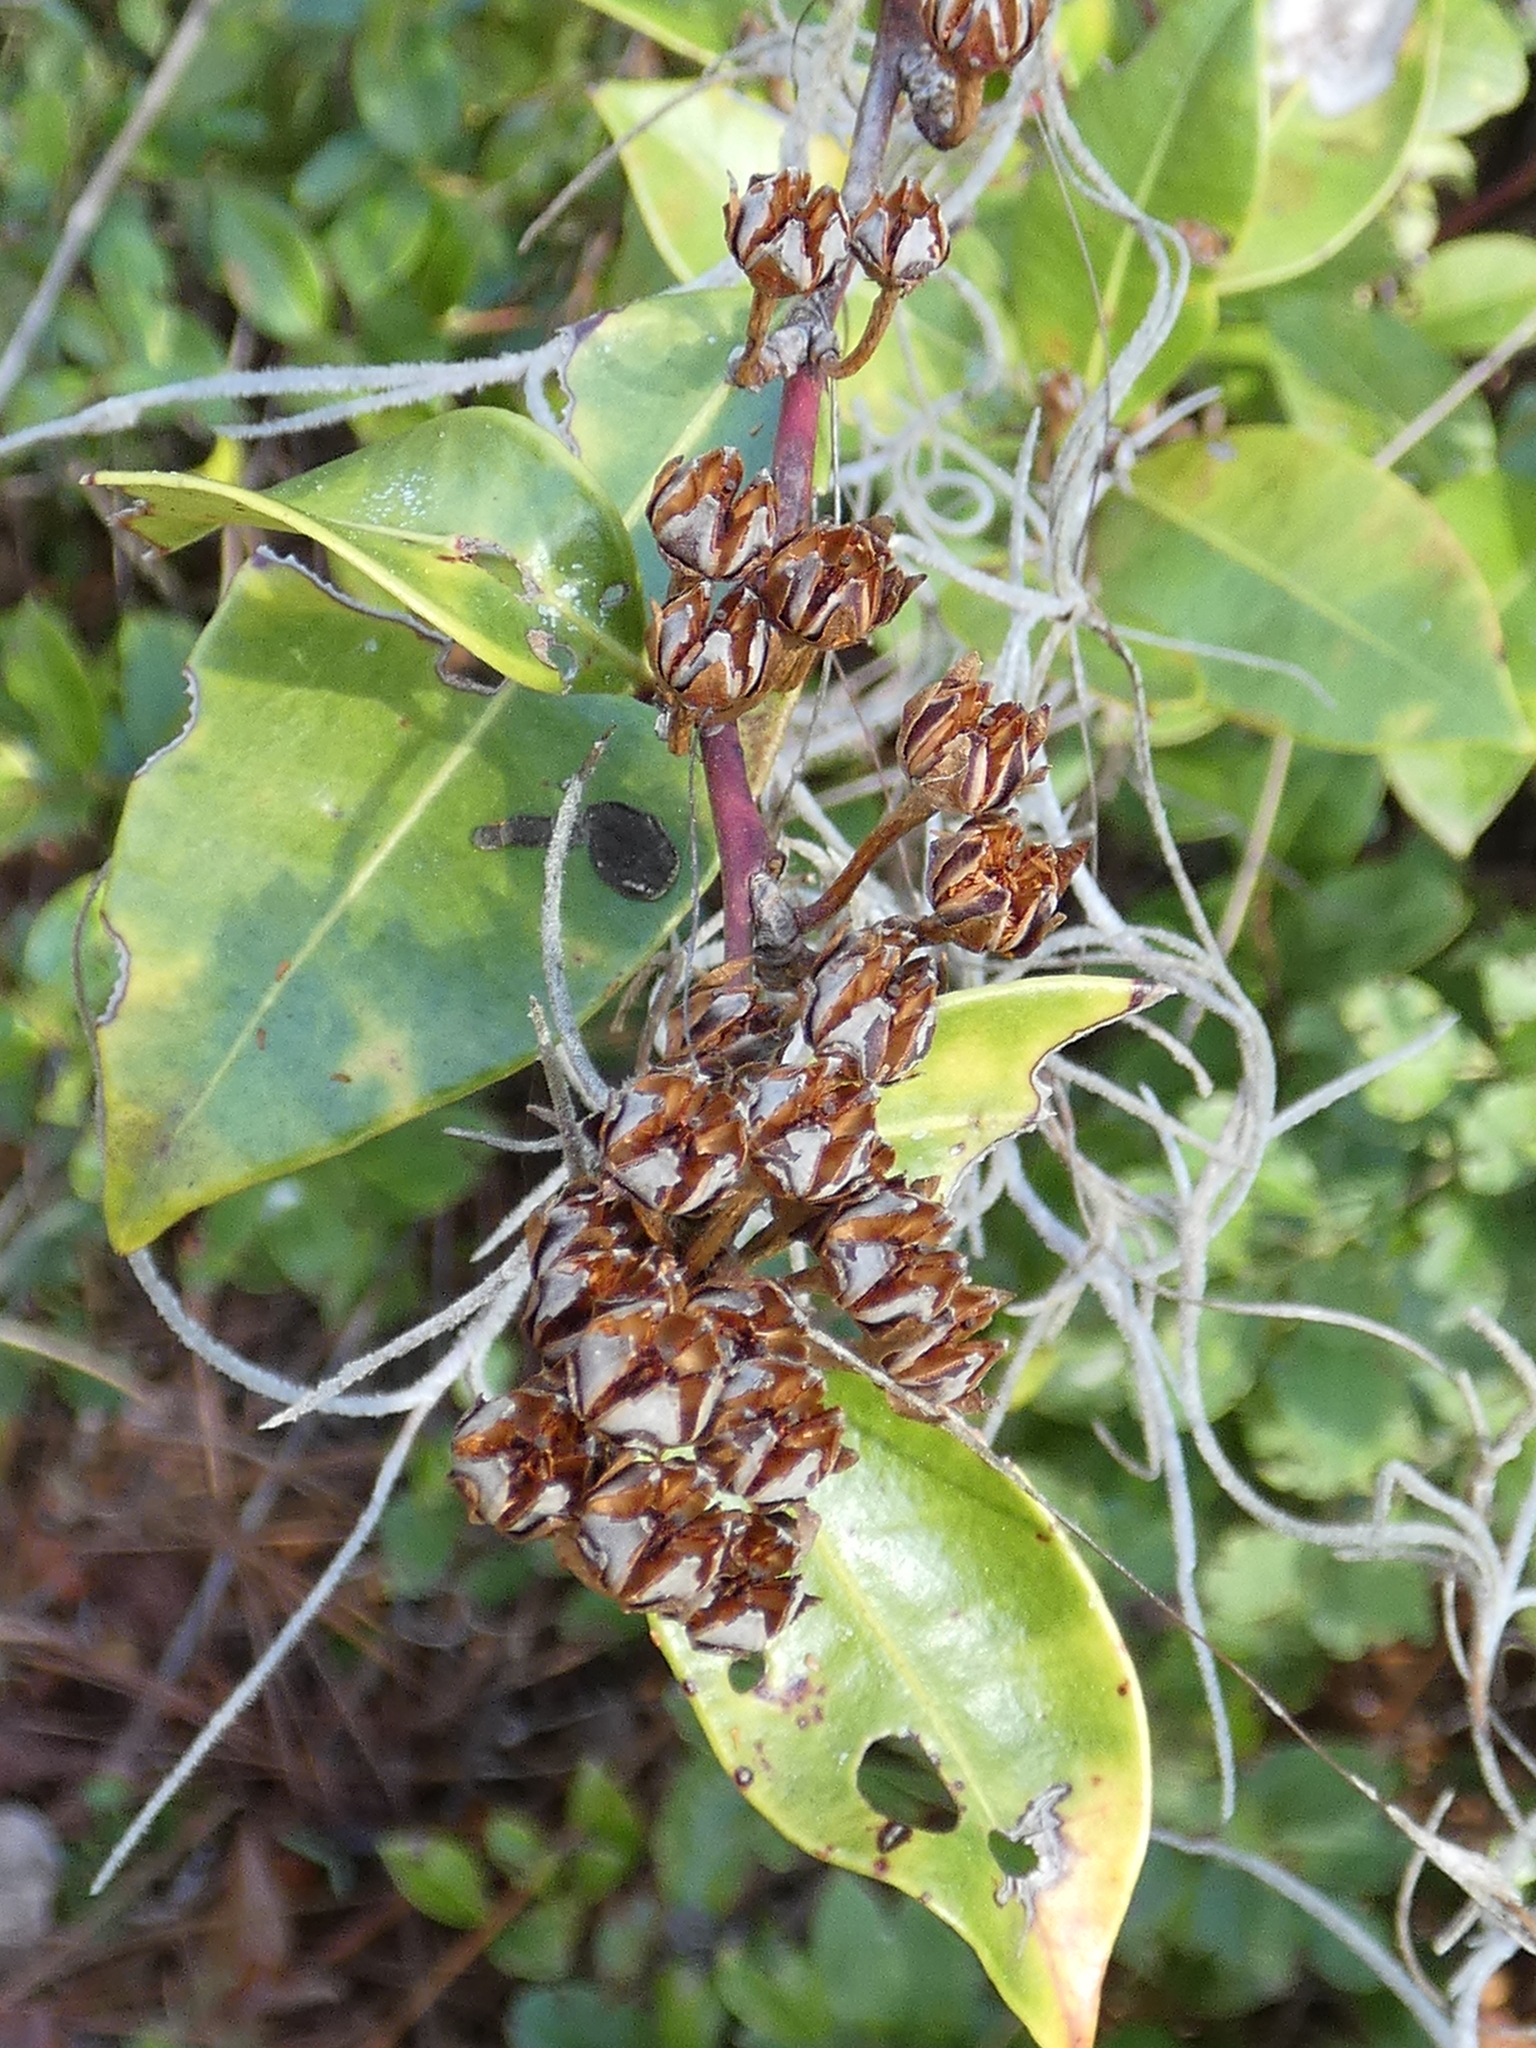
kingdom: Plantae
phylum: Tracheophyta
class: Magnoliopsida
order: Ericales
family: Ericaceae
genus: Lyonia
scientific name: Lyonia lucida
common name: Fetterbush
